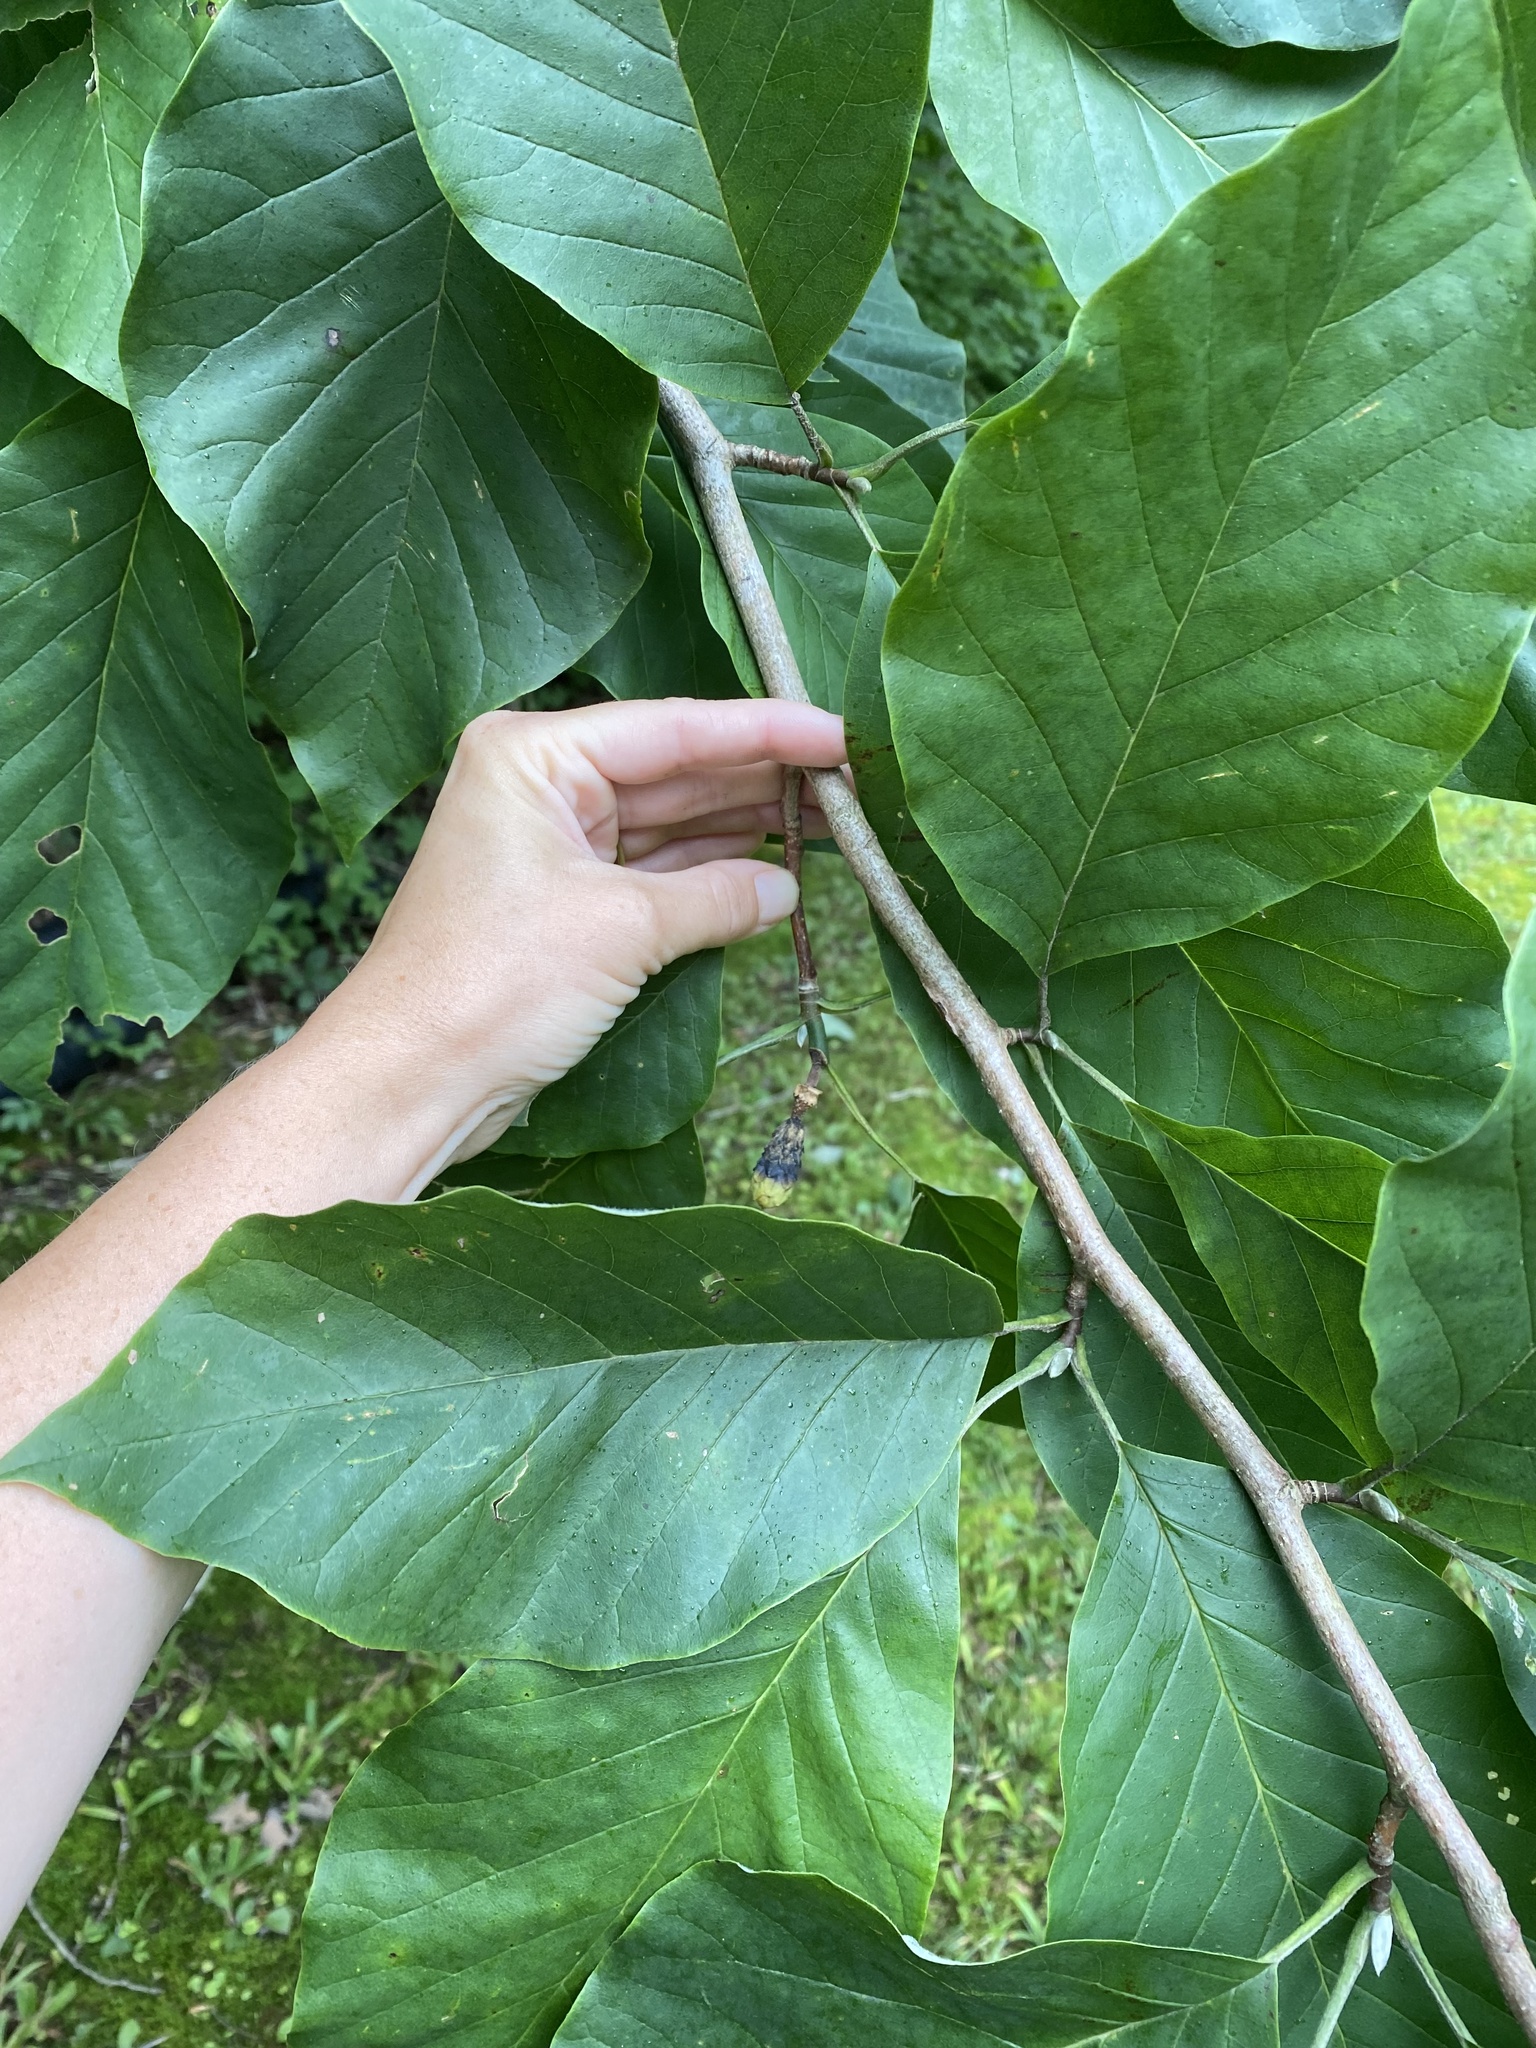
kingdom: Plantae
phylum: Tracheophyta
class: Magnoliopsida
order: Magnoliales
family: Magnoliaceae
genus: Magnolia
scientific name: Magnolia acuminata
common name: Cucumber magnolia
